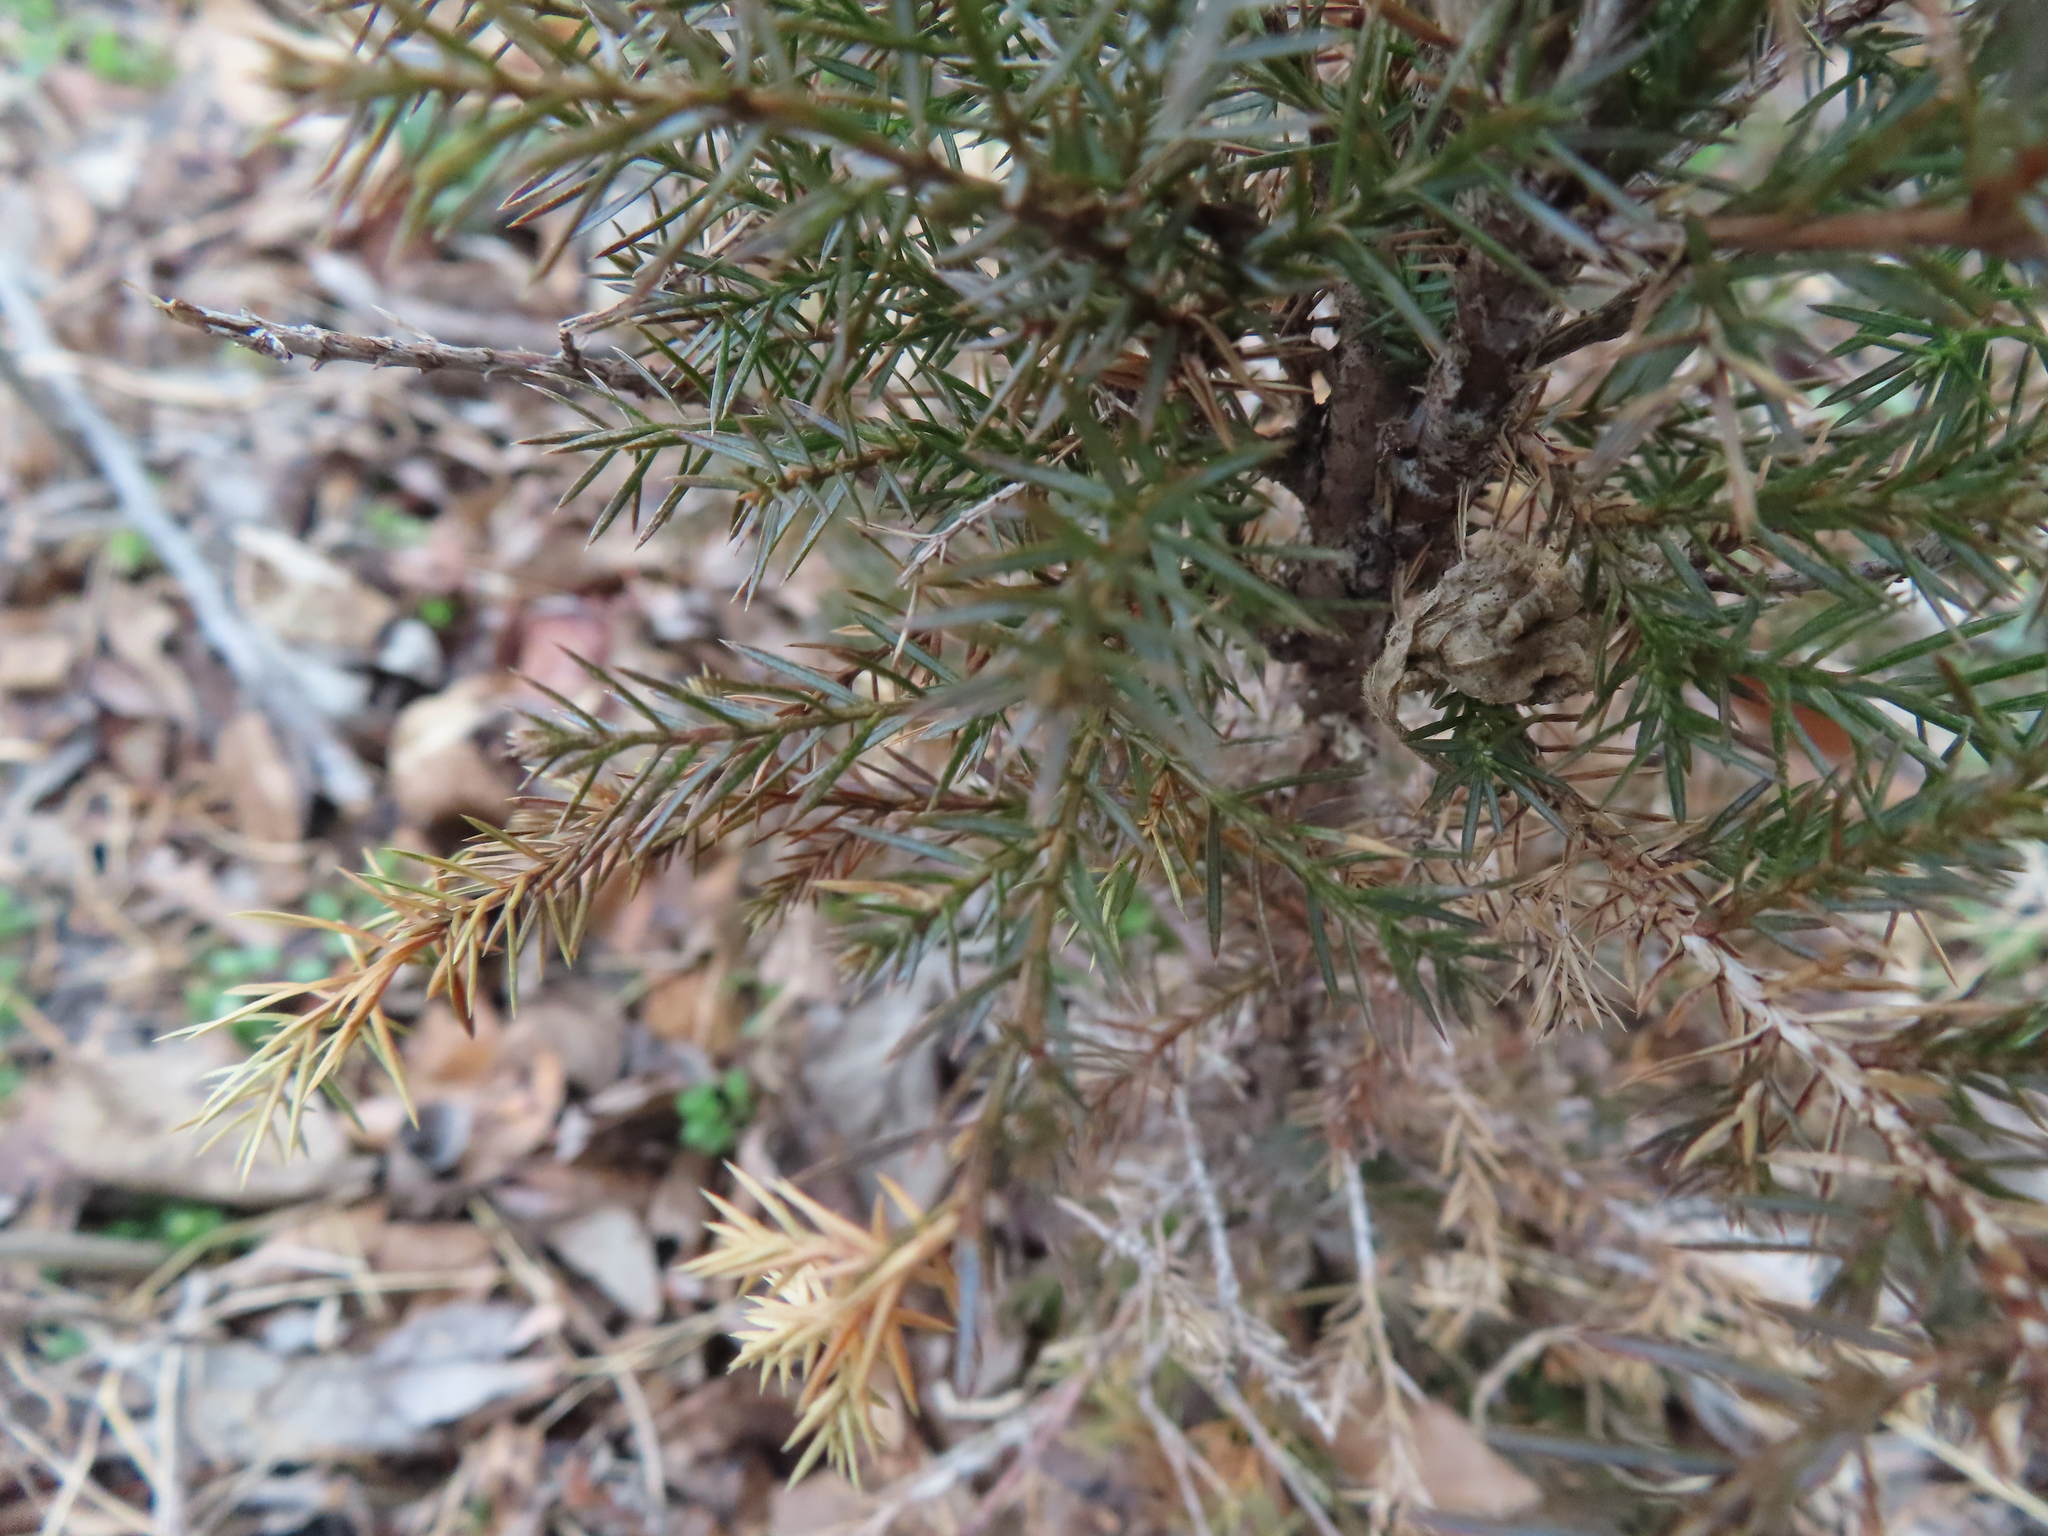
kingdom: Plantae
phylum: Tracheophyta
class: Pinopsida
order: Pinales
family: Cupressaceae
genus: Juniperus
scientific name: Juniperus communis
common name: Common juniper
